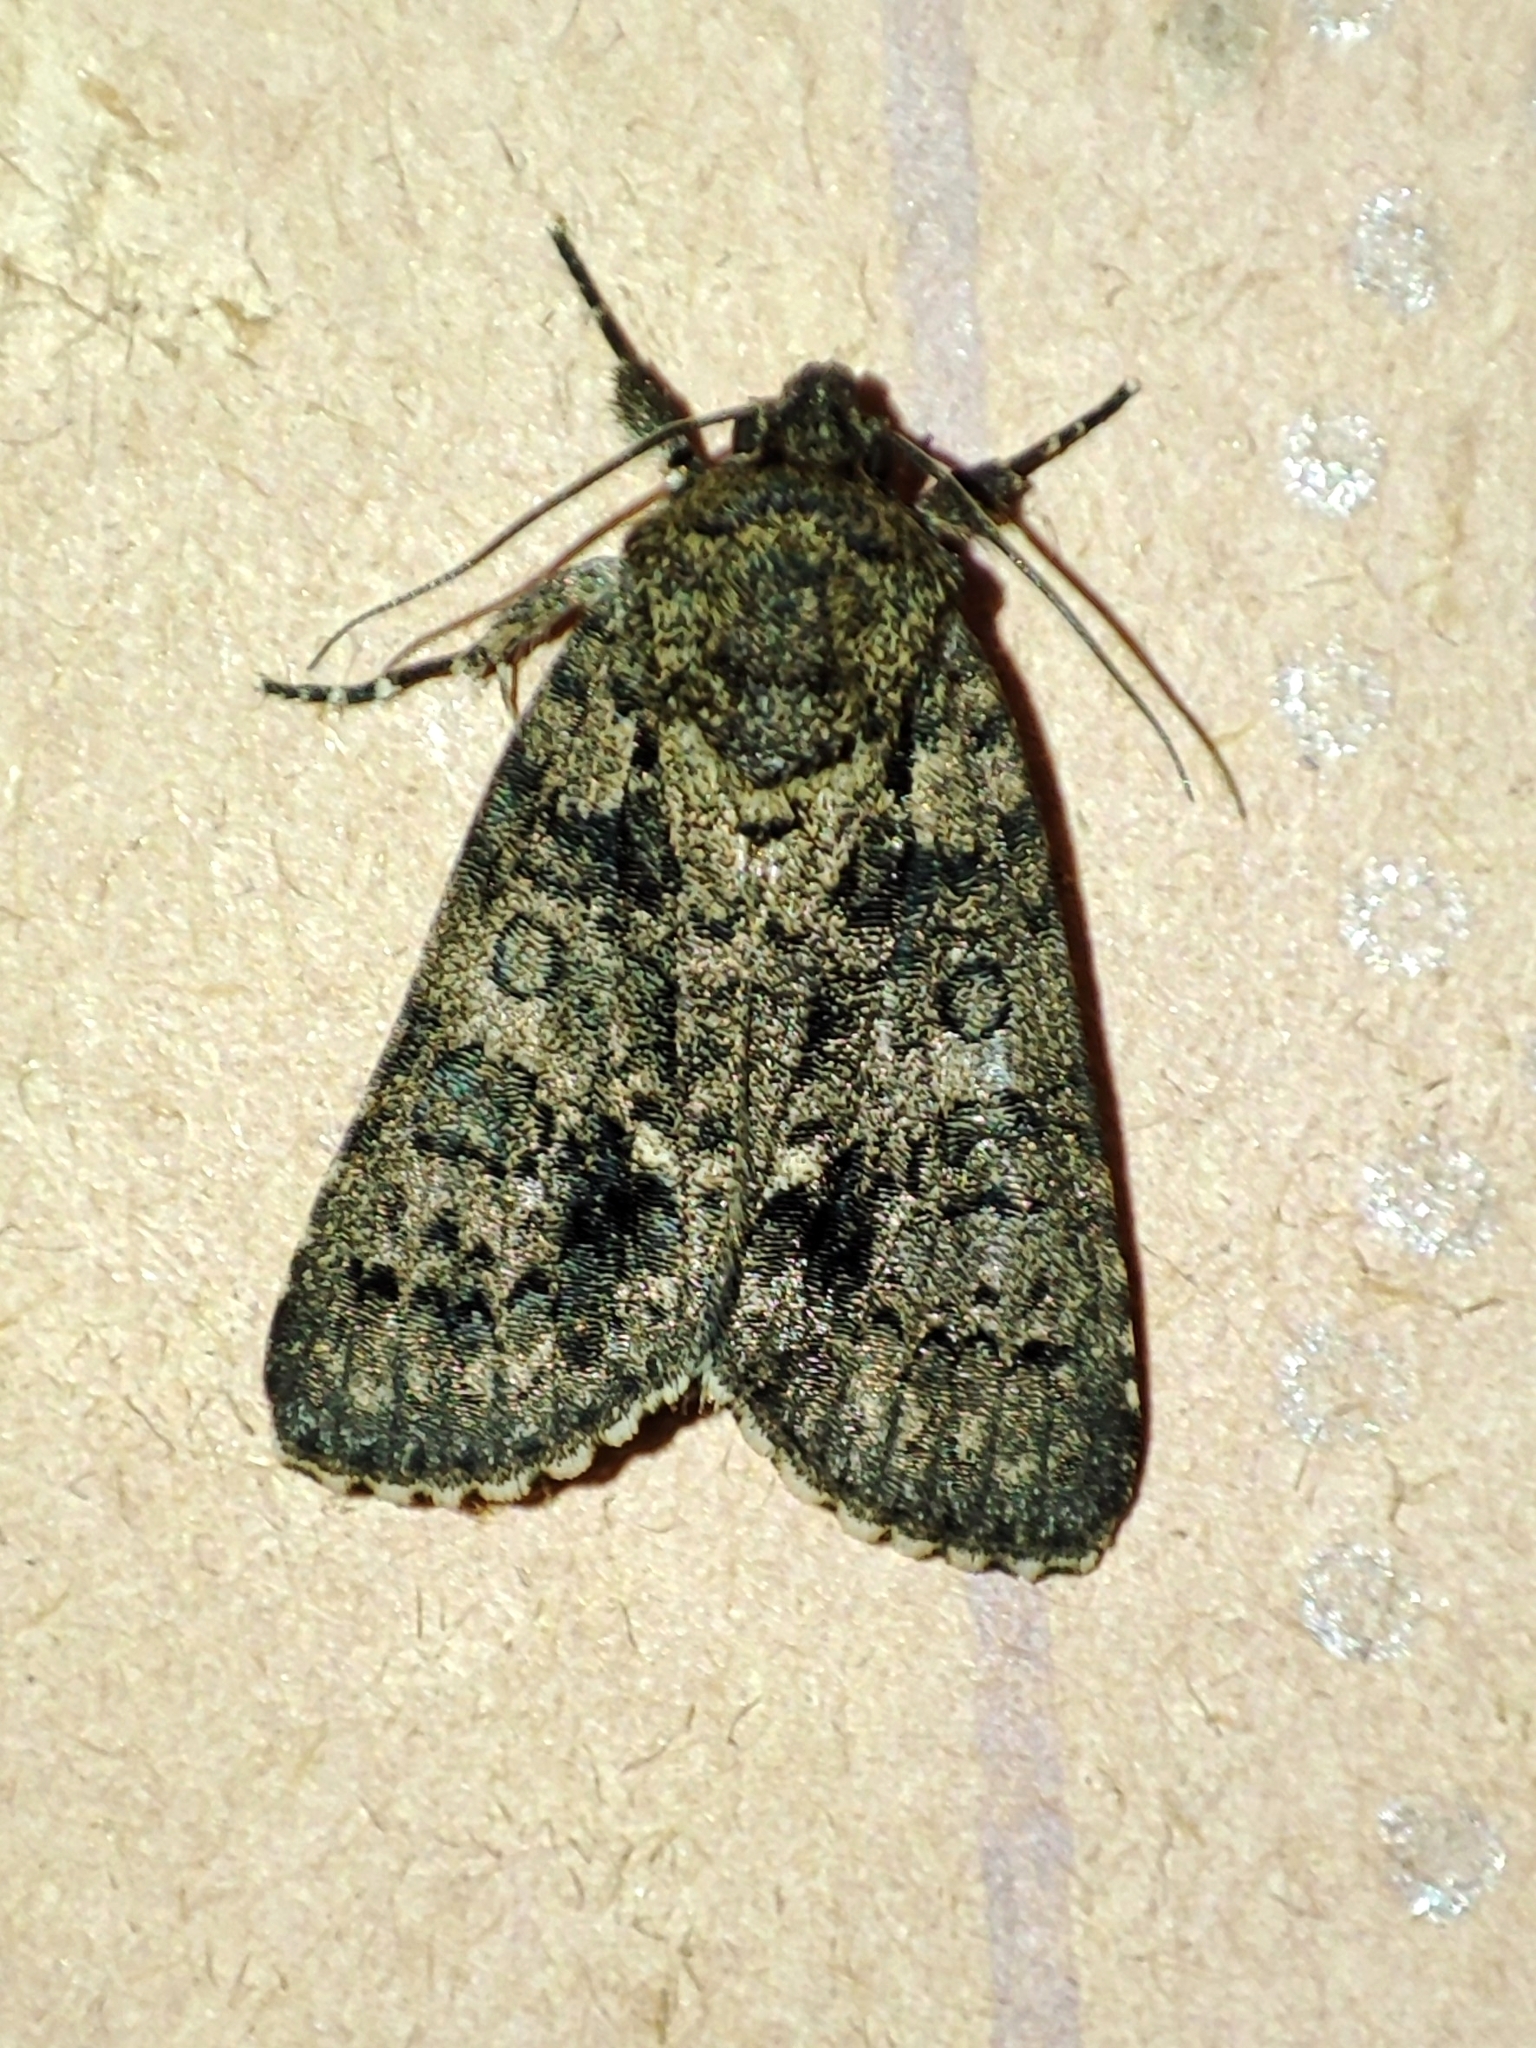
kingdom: Animalia
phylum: Arthropoda
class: Insecta
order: Lepidoptera
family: Noctuidae
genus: Acronicta
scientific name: Acronicta rumicis
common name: Knot grass
